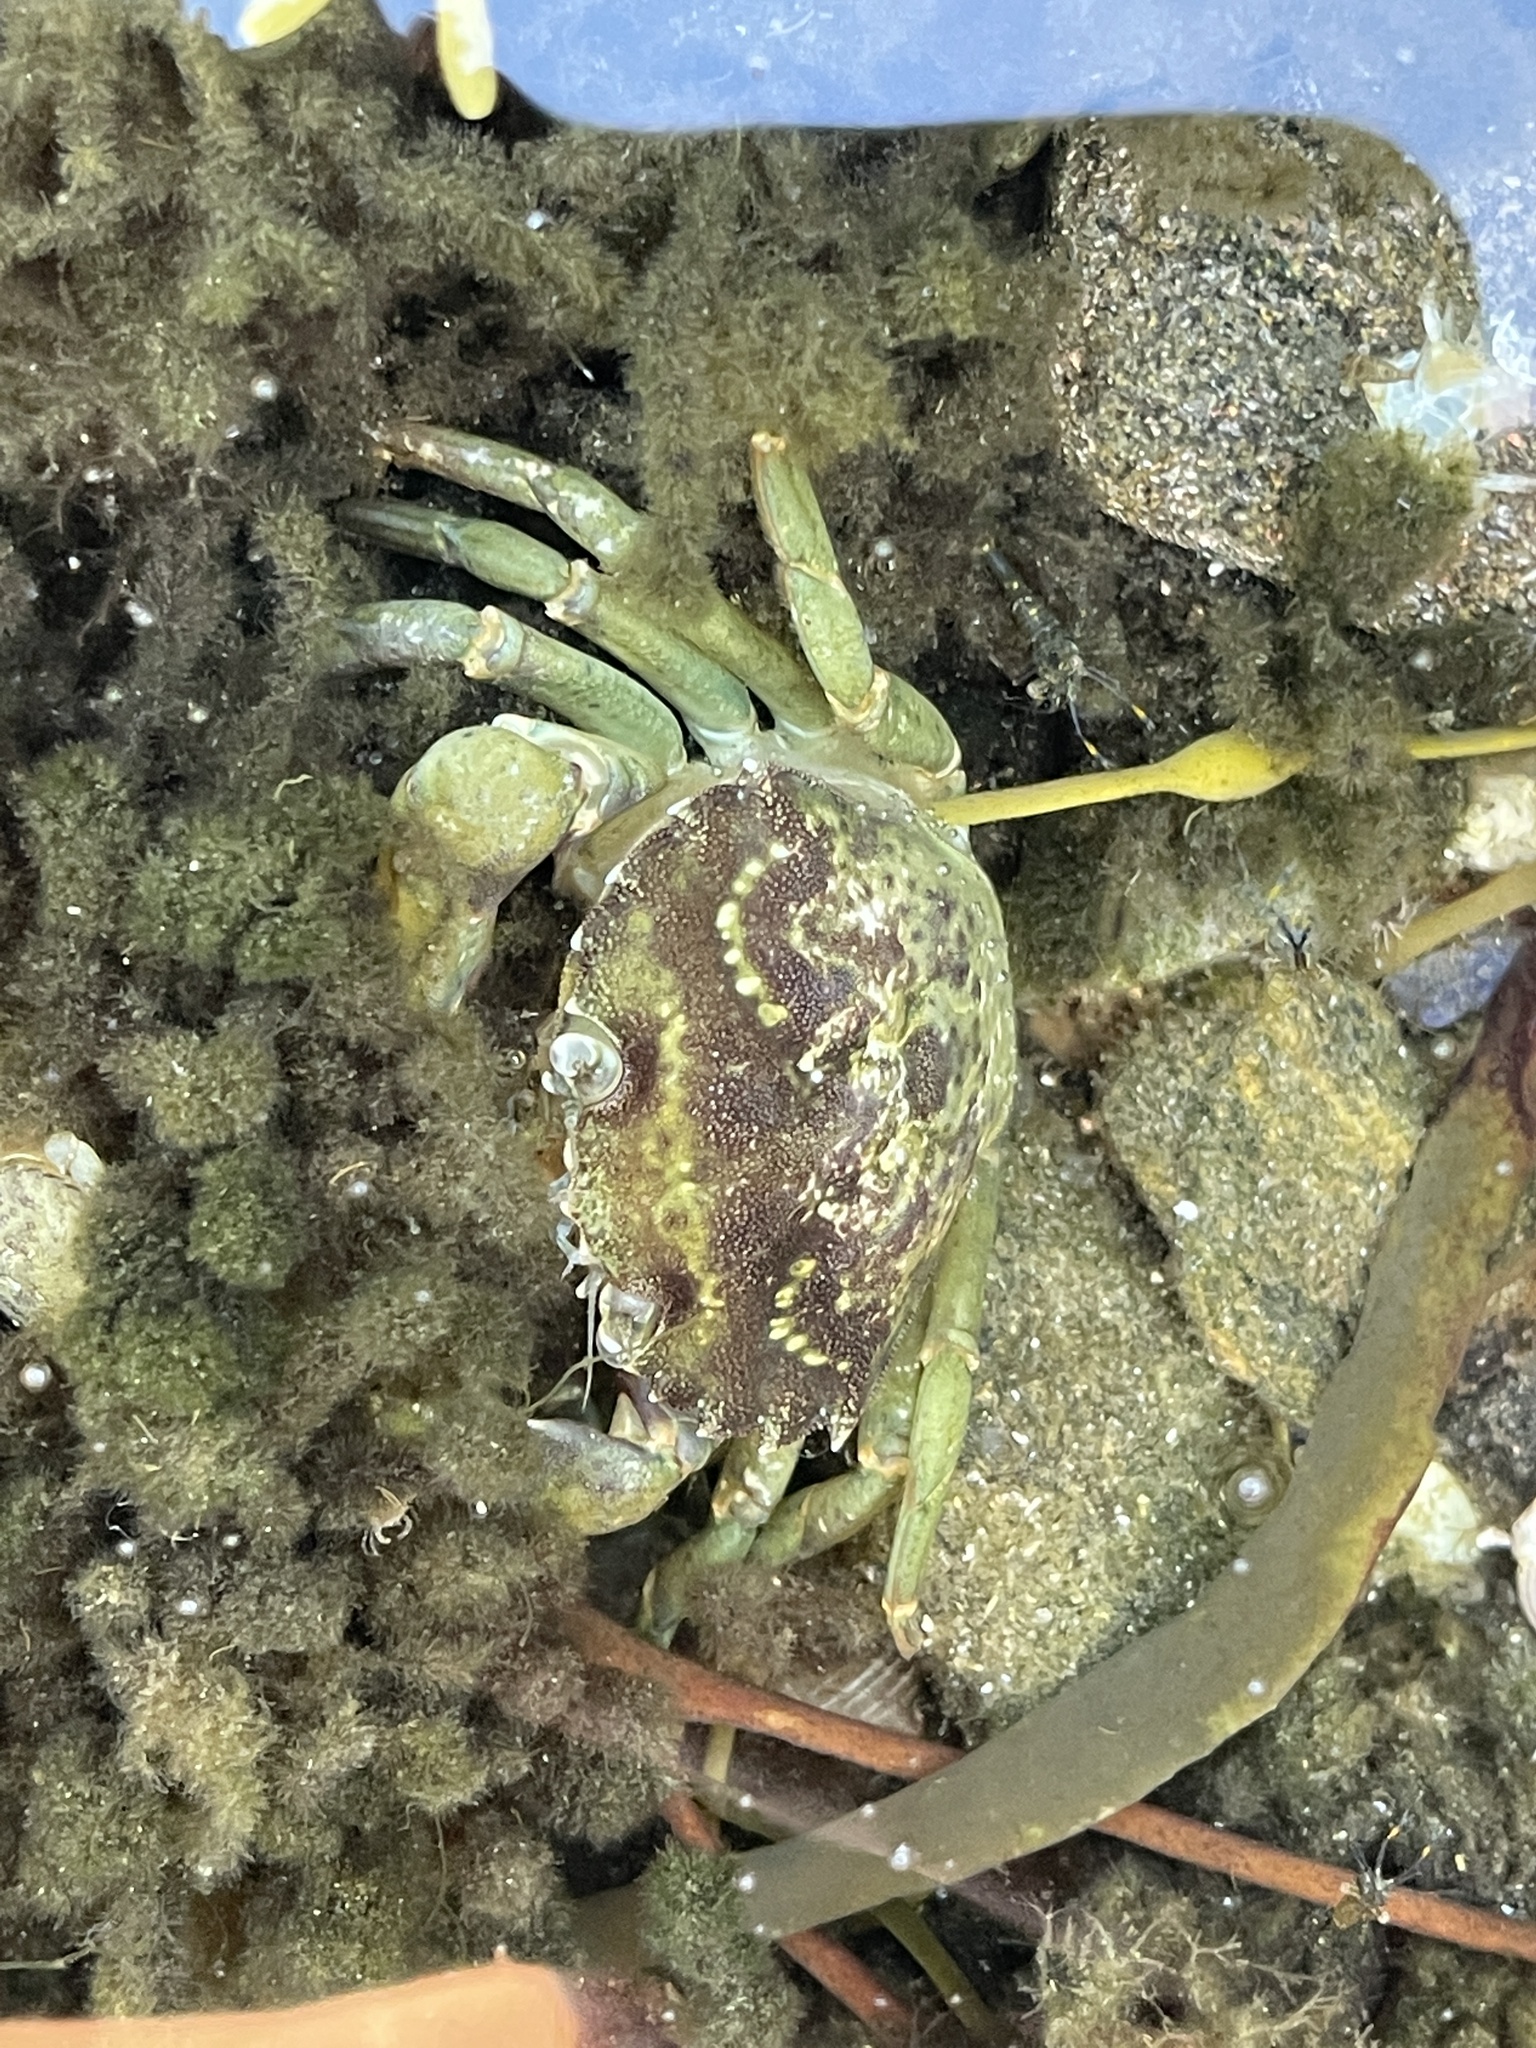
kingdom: Animalia
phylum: Arthropoda
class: Malacostraca
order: Decapoda
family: Carcinidae
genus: Carcinus
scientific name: Carcinus maenas
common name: European green crab
